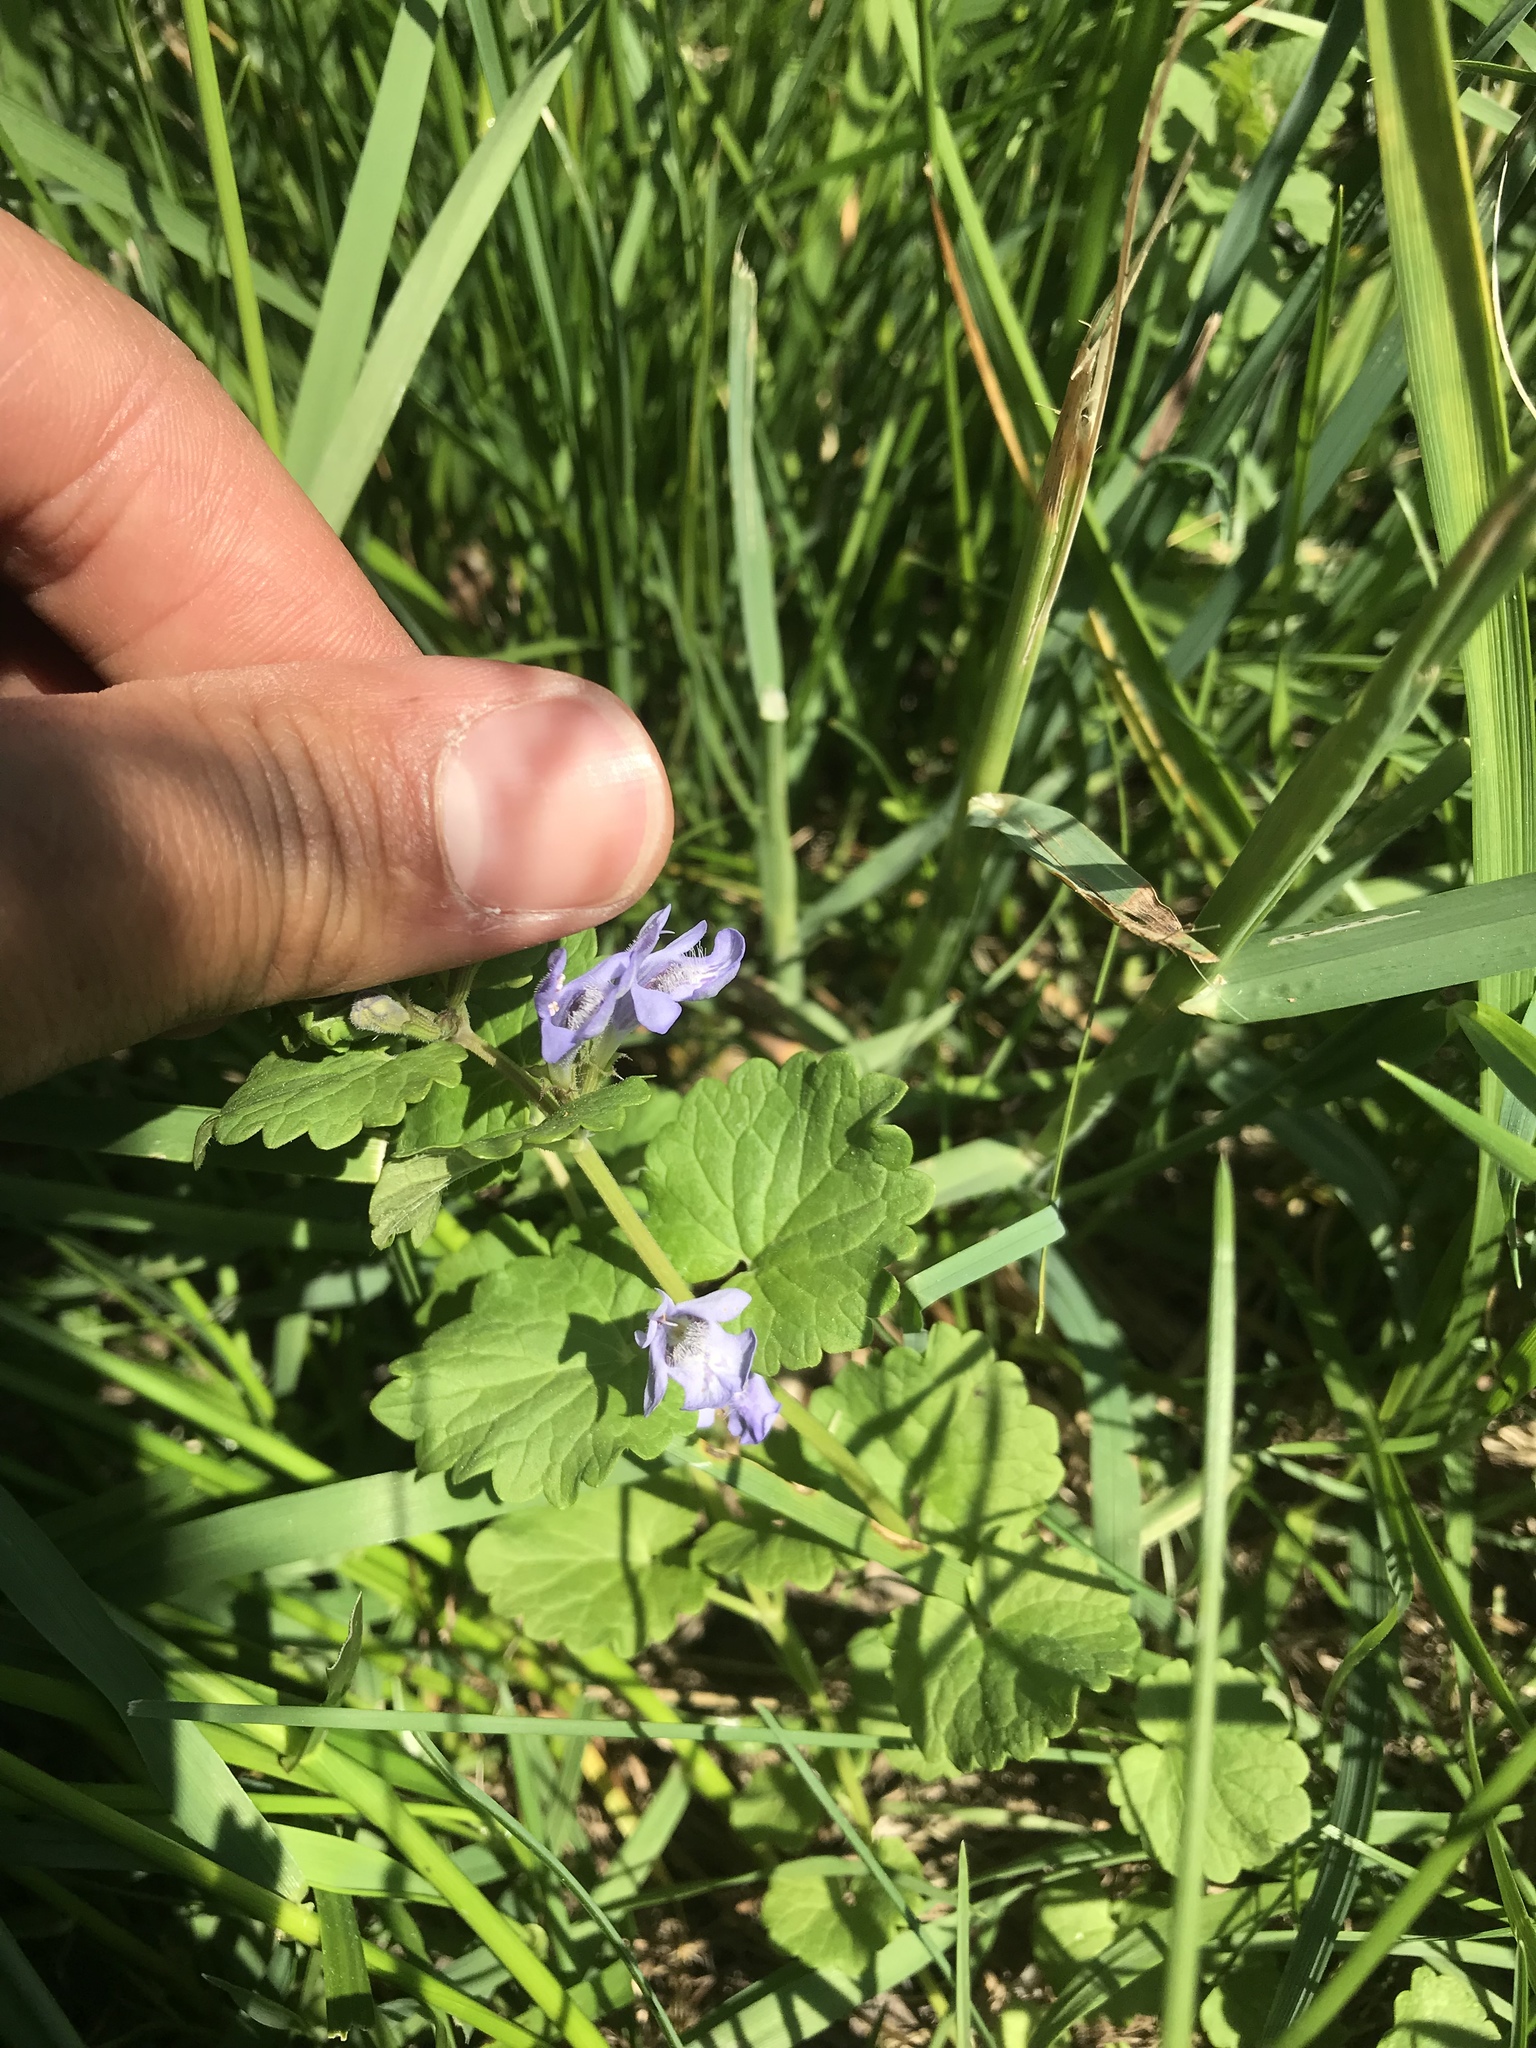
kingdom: Plantae
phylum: Tracheophyta
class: Magnoliopsida
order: Lamiales
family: Lamiaceae
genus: Glechoma
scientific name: Glechoma hederacea
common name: Ground ivy
